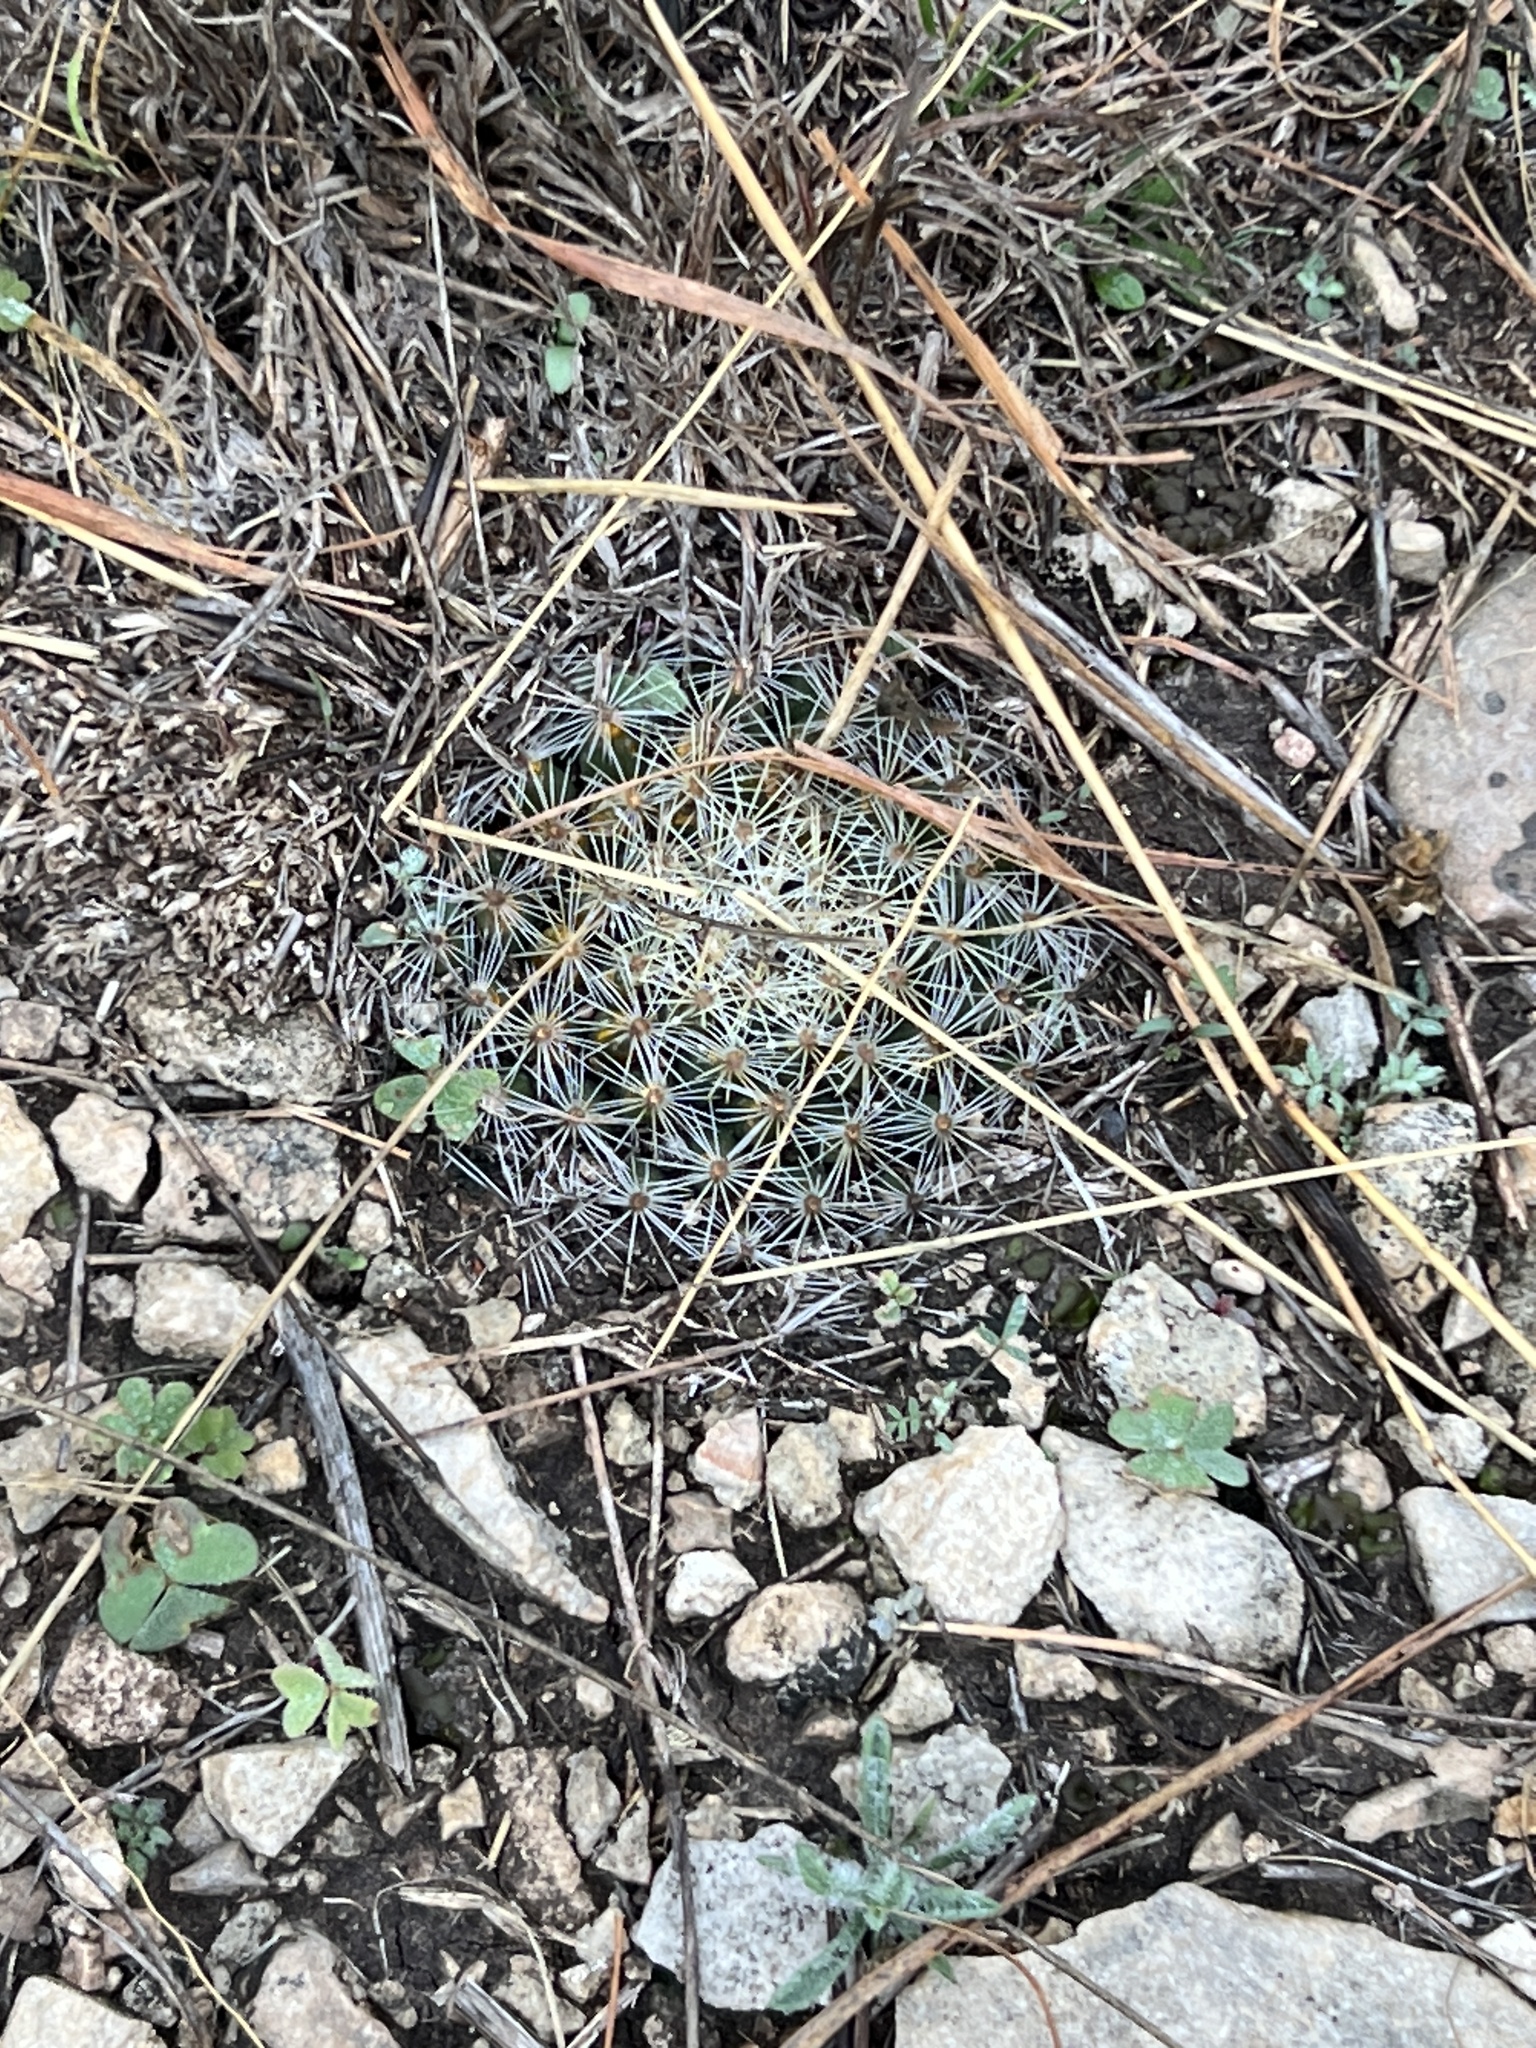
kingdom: Plantae
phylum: Tracheophyta
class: Magnoliopsida
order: Caryophyllales
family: Cactaceae
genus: Mammillaria
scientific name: Mammillaria heyderi
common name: Little nipple cactus
